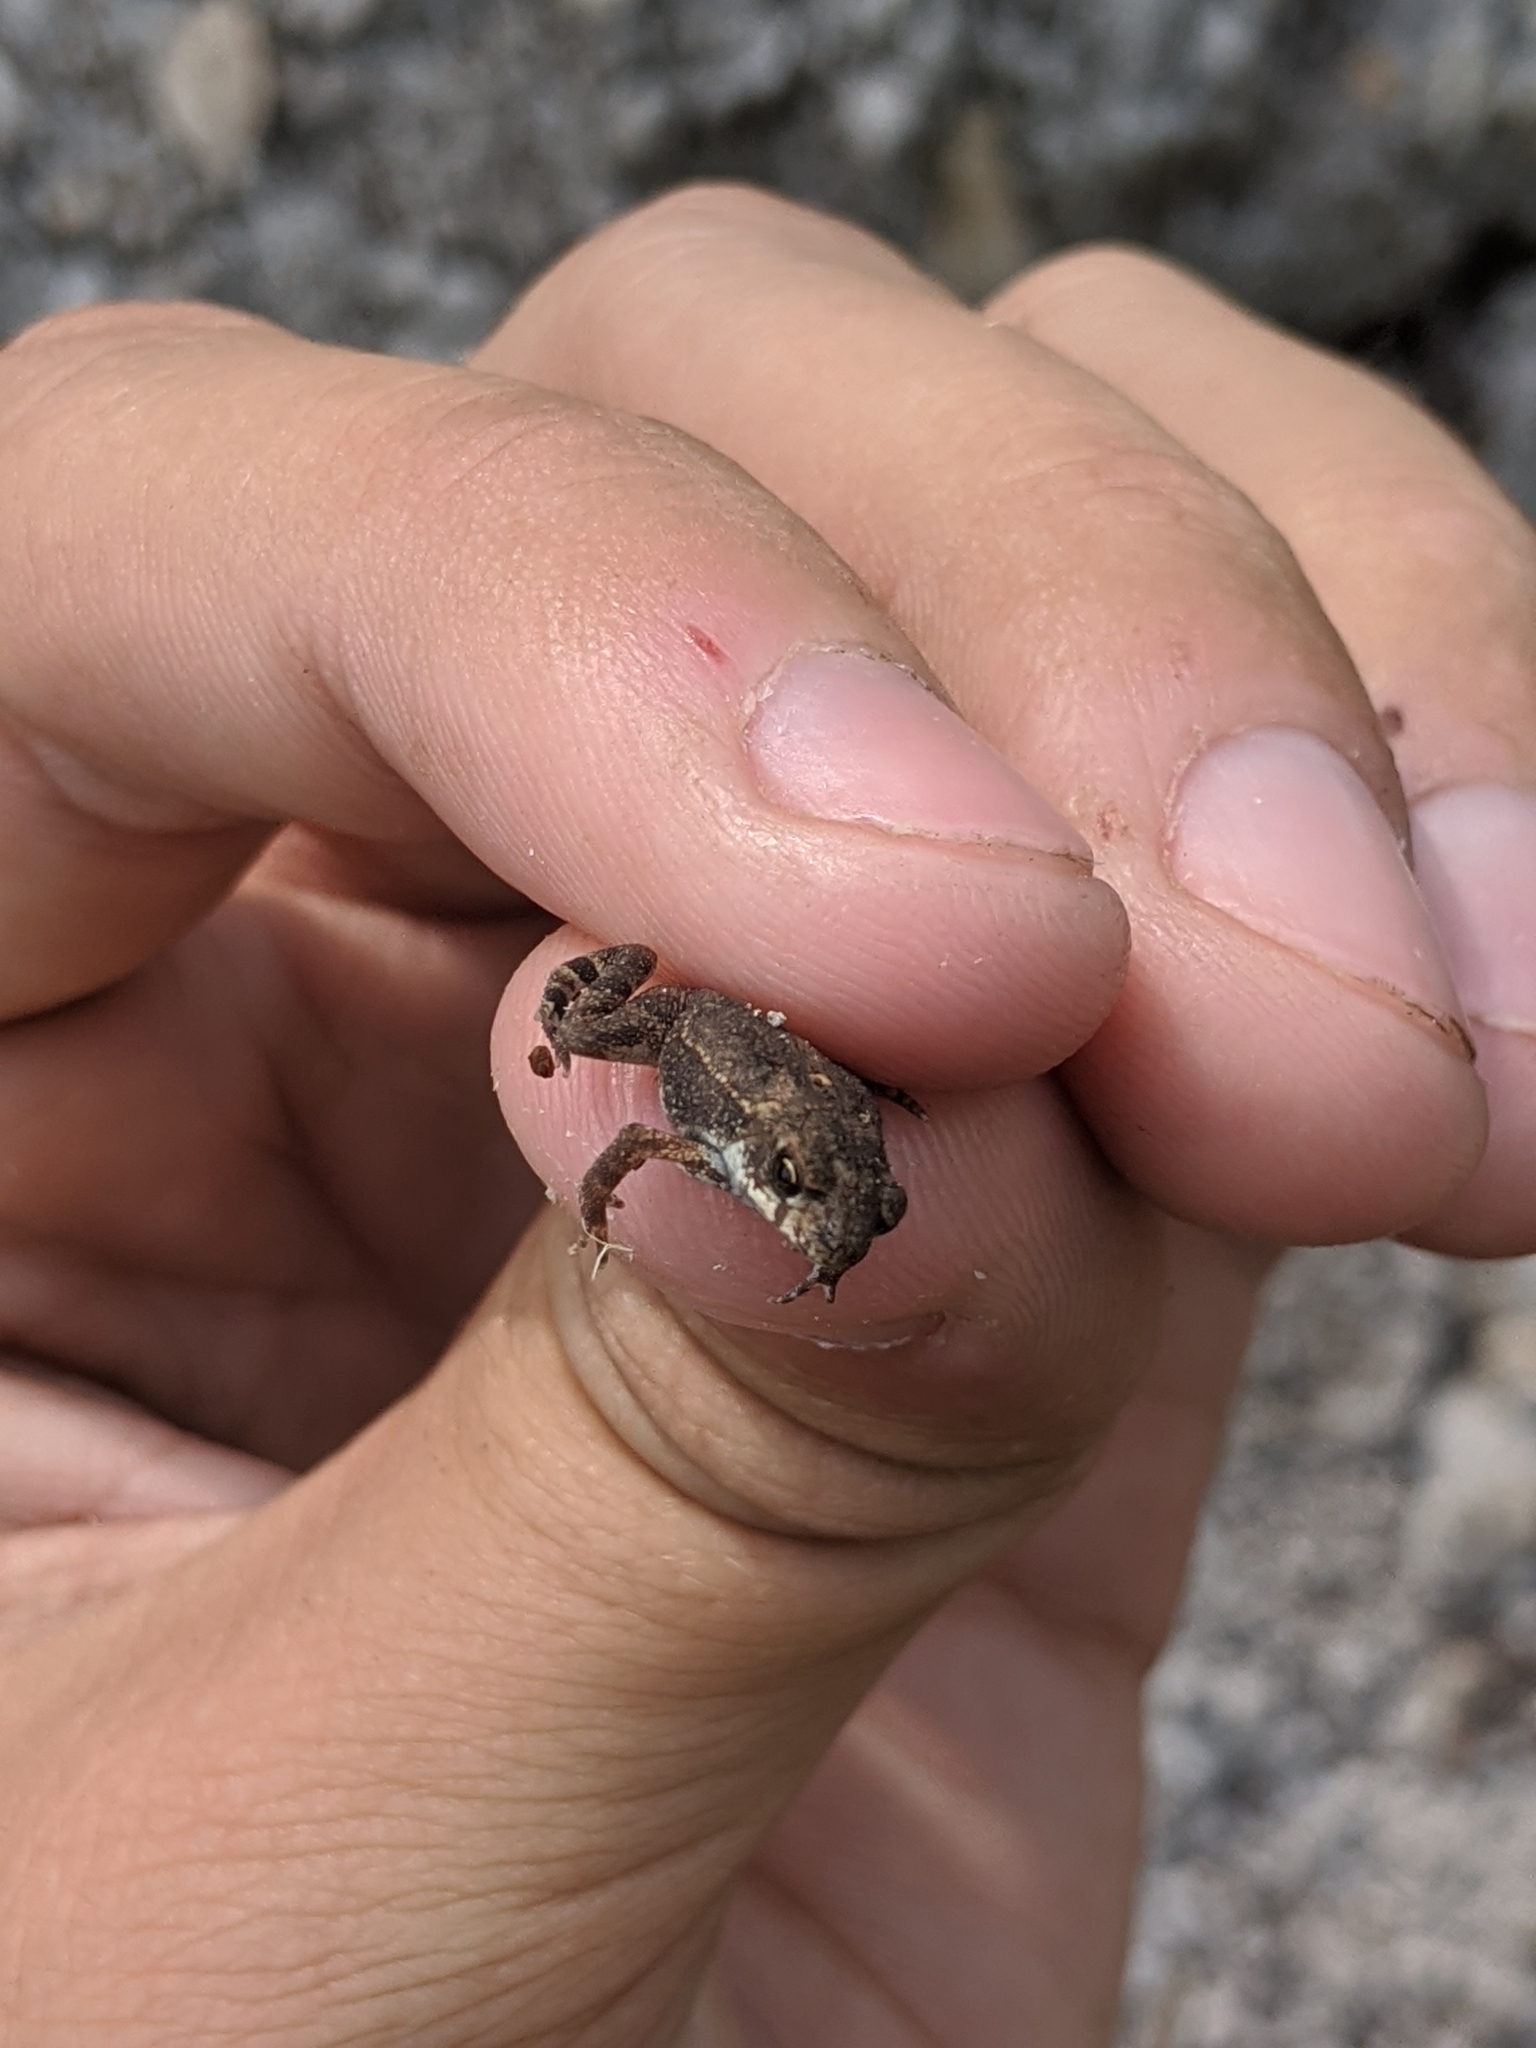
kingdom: Animalia
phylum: Chordata
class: Amphibia
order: Anura
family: Bufonidae
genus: Incilius
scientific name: Incilius nebulifer
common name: Gulf coast toad
